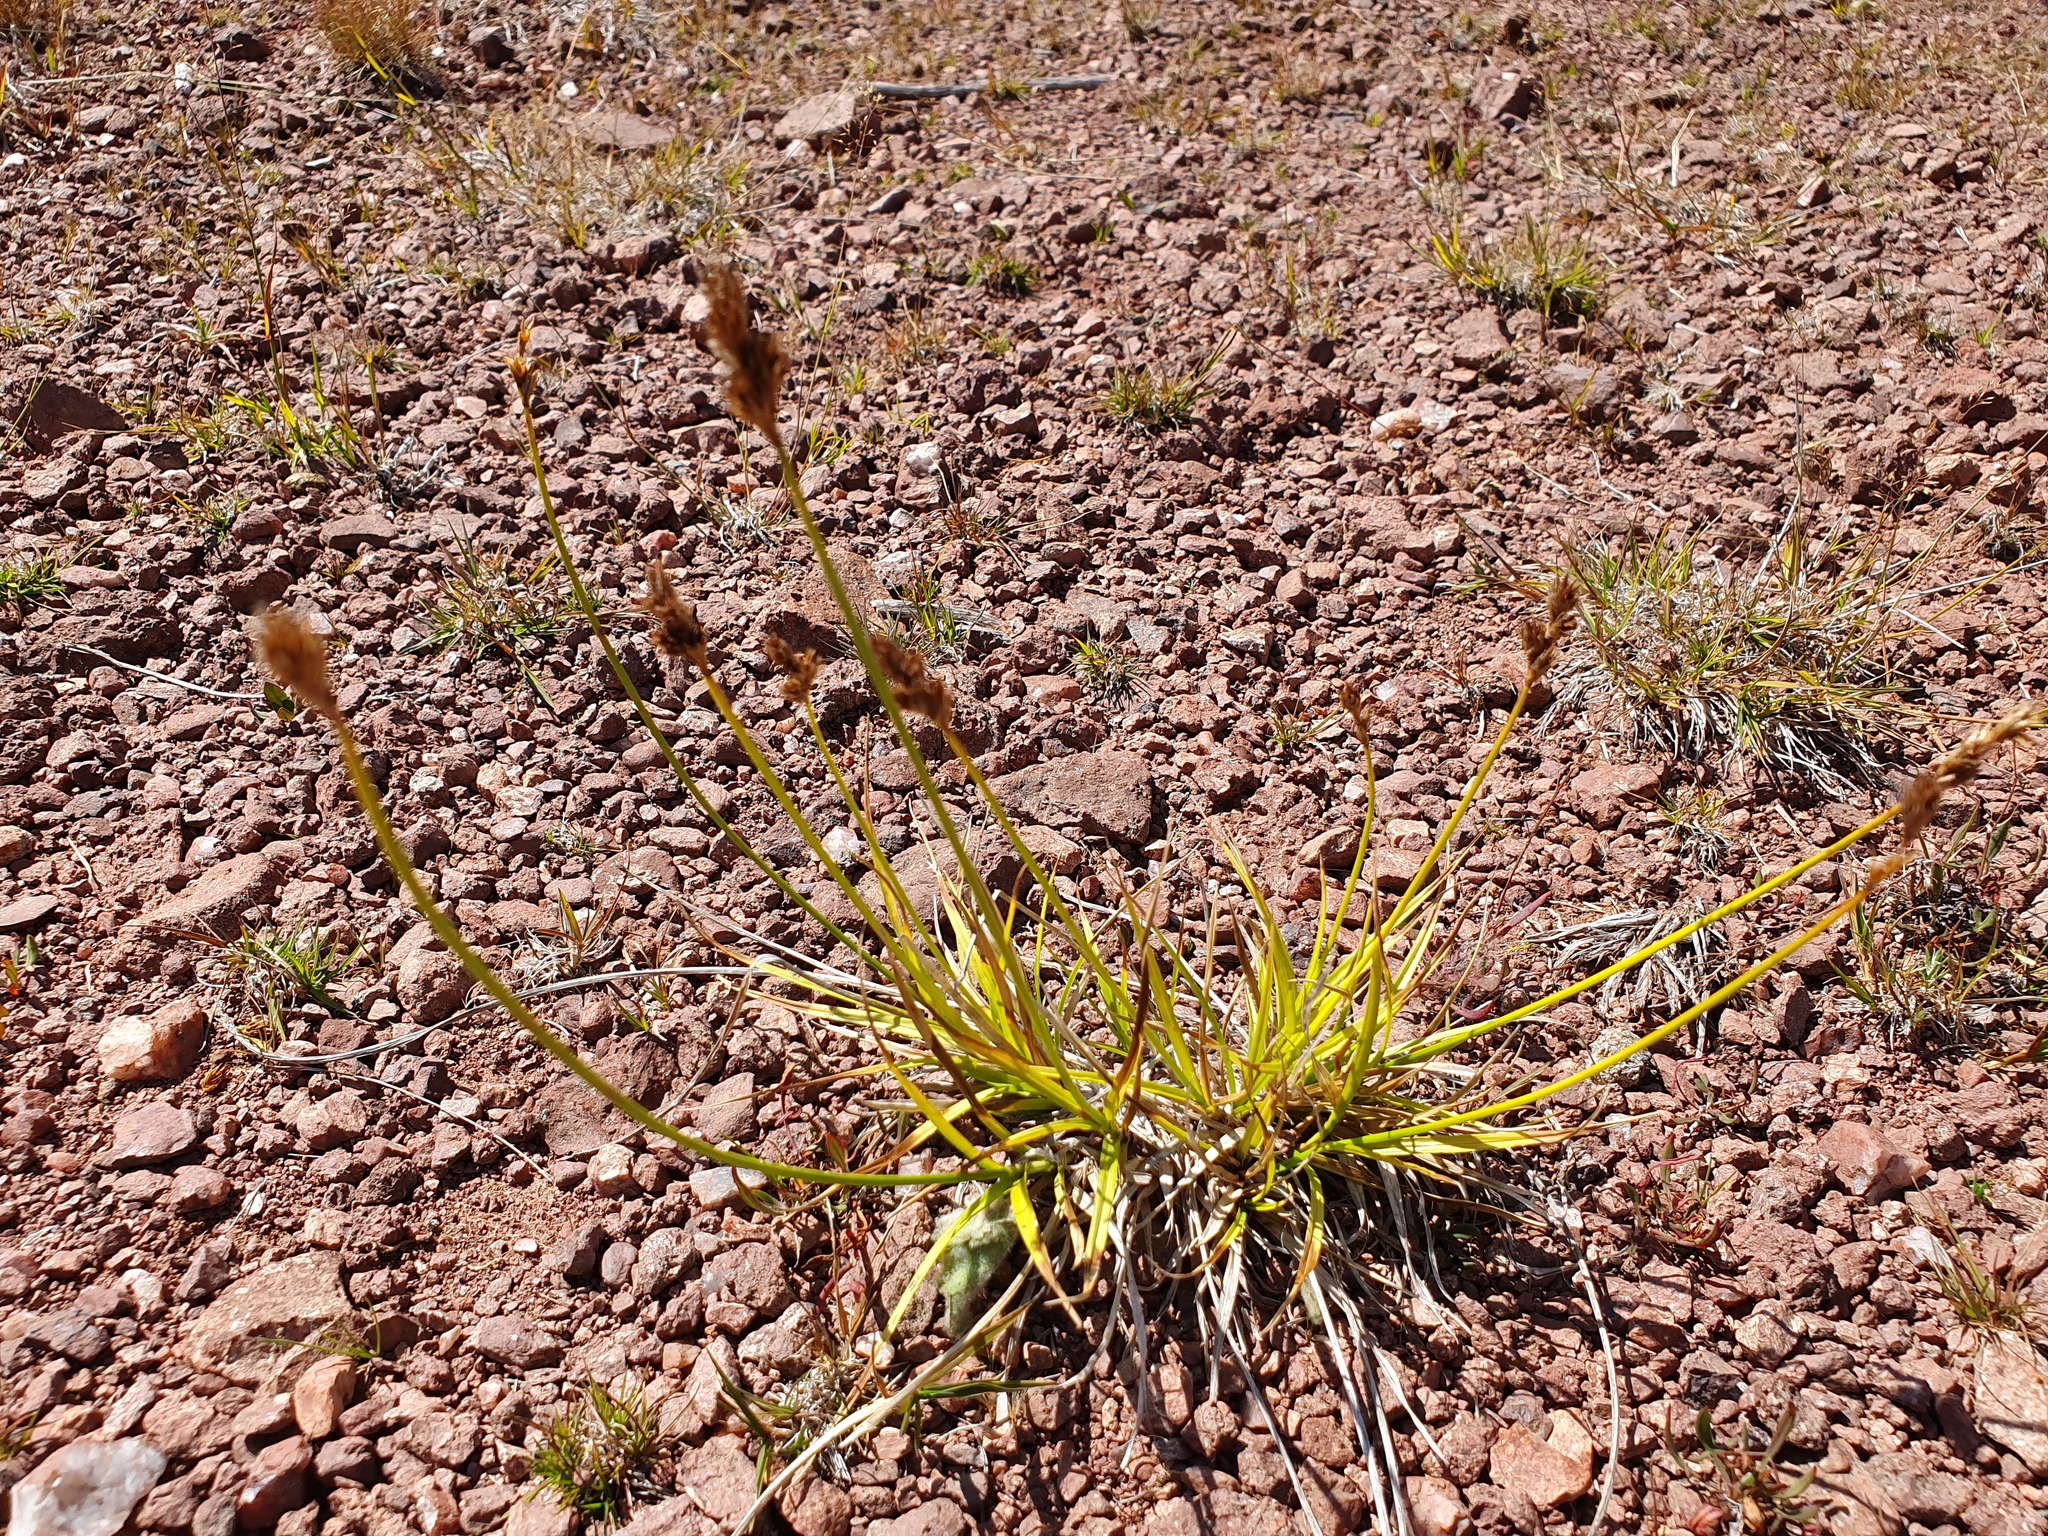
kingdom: Plantae
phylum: Tracheophyta
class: Liliopsida
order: Poales
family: Cyperaceae
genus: Carex
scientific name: Carex leporina
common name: Oval sedge
